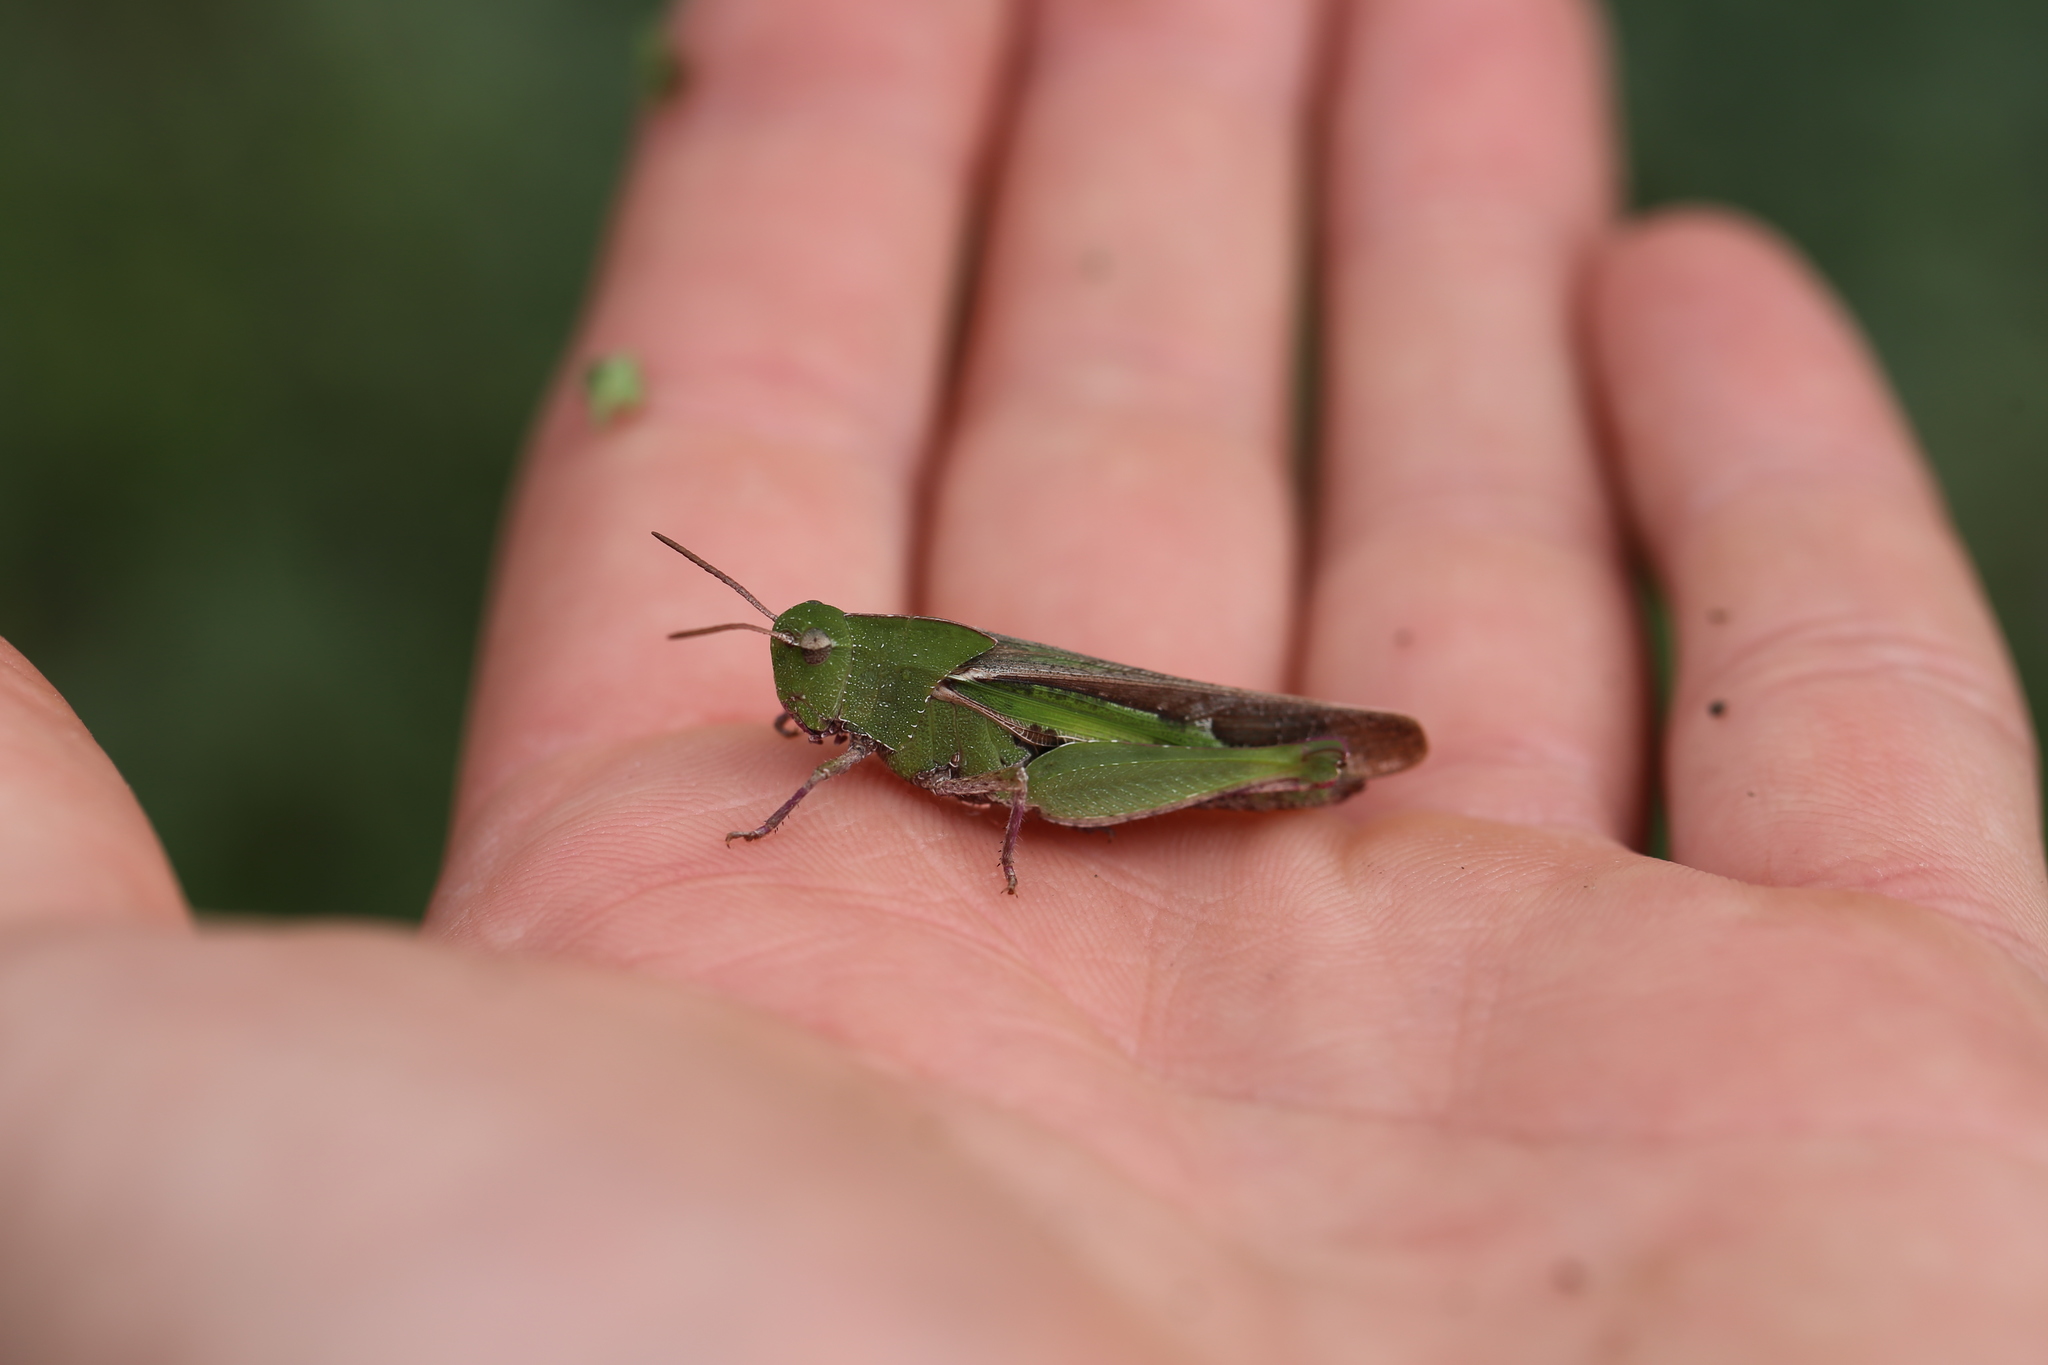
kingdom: Animalia
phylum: Arthropoda
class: Insecta
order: Orthoptera
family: Acrididae
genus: Chortophaga
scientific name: Chortophaga viridifasciata
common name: Green-striped grasshopper
